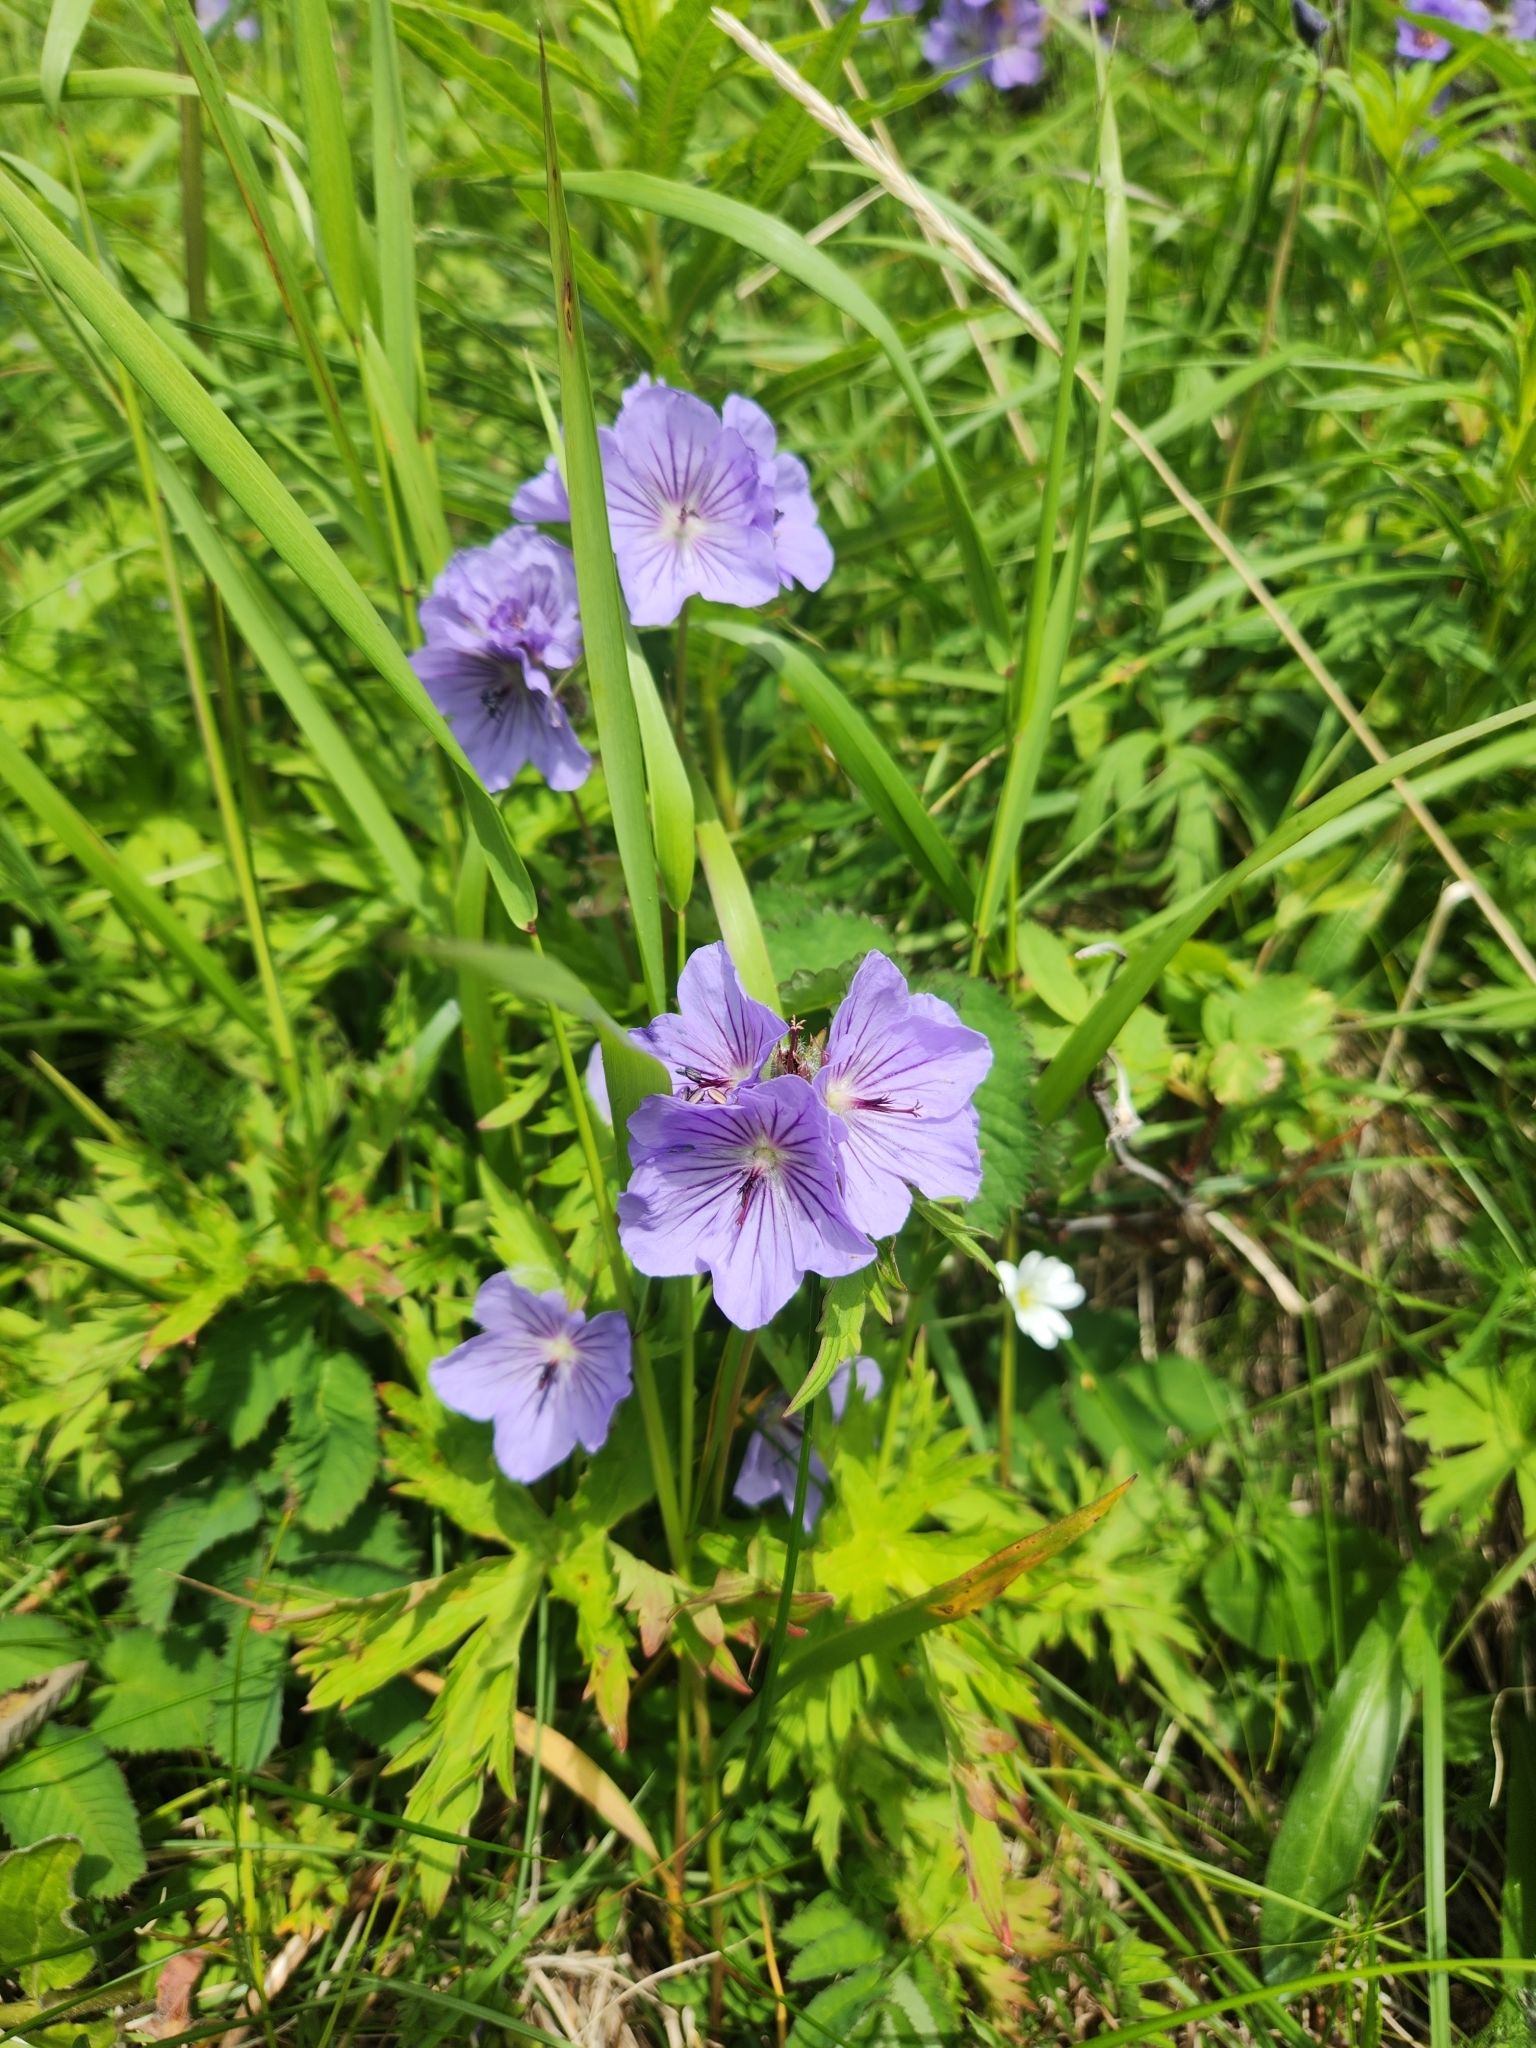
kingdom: Plantae
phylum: Tracheophyta
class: Magnoliopsida
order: Geraniales
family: Geraniaceae
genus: Geranium
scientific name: Geranium erianthum
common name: Northern crane's-bill
